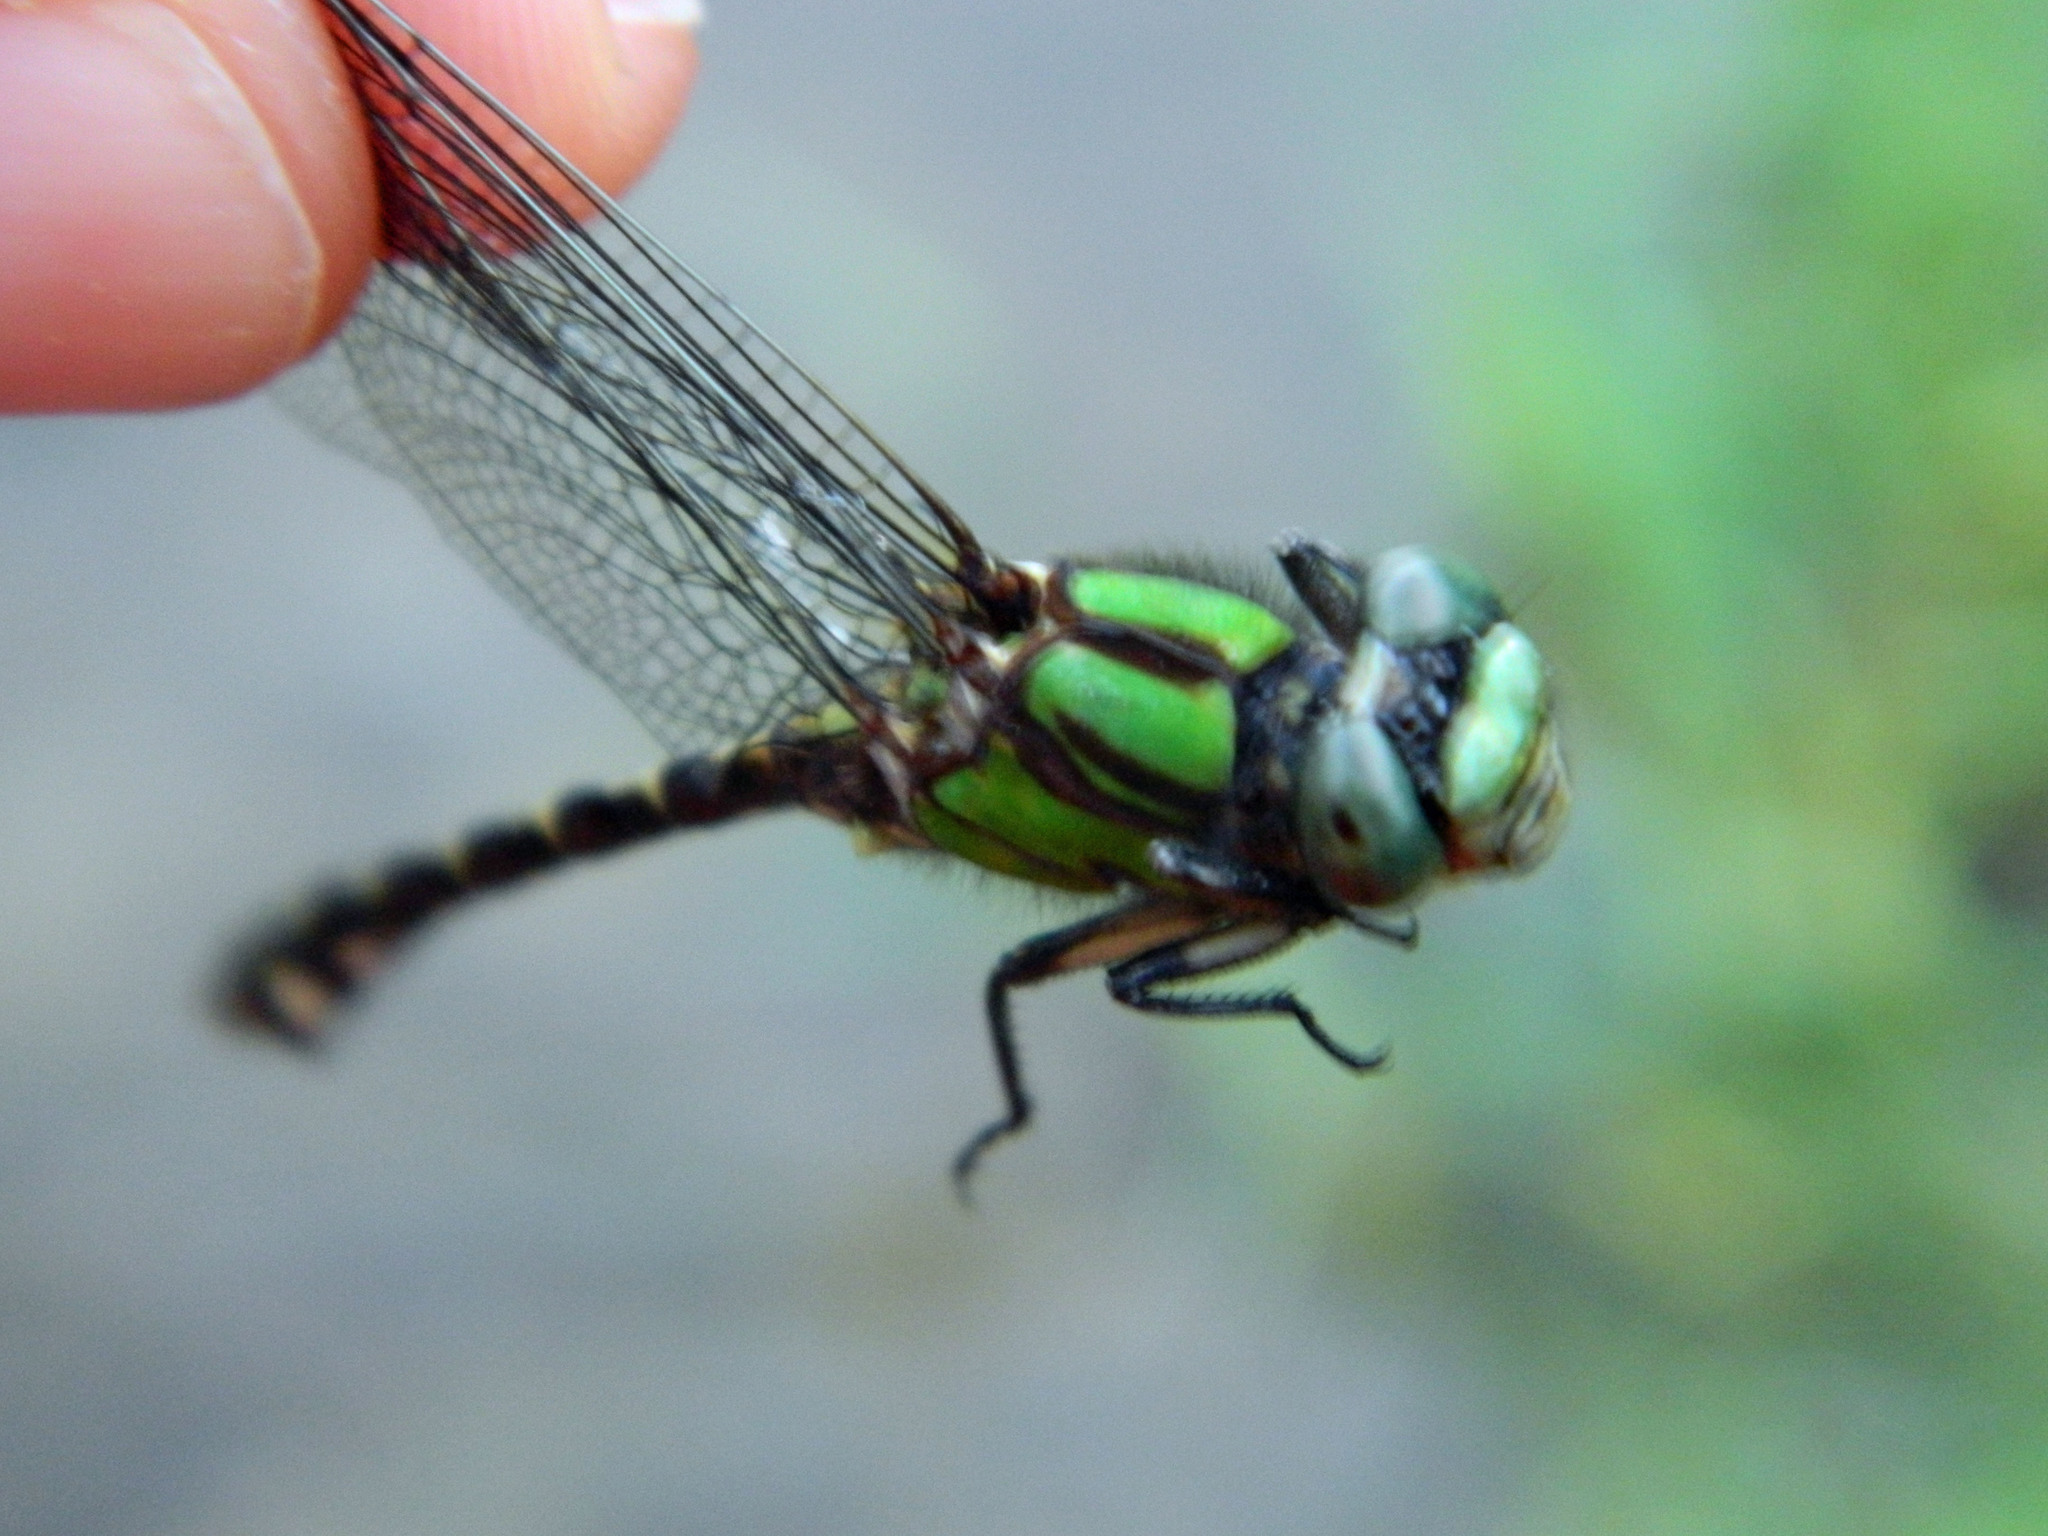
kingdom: Animalia
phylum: Arthropoda
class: Insecta
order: Odonata
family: Gomphidae
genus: Ophiogomphus
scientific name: Ophiogomphus colubrinus
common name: Boreal snaketail
